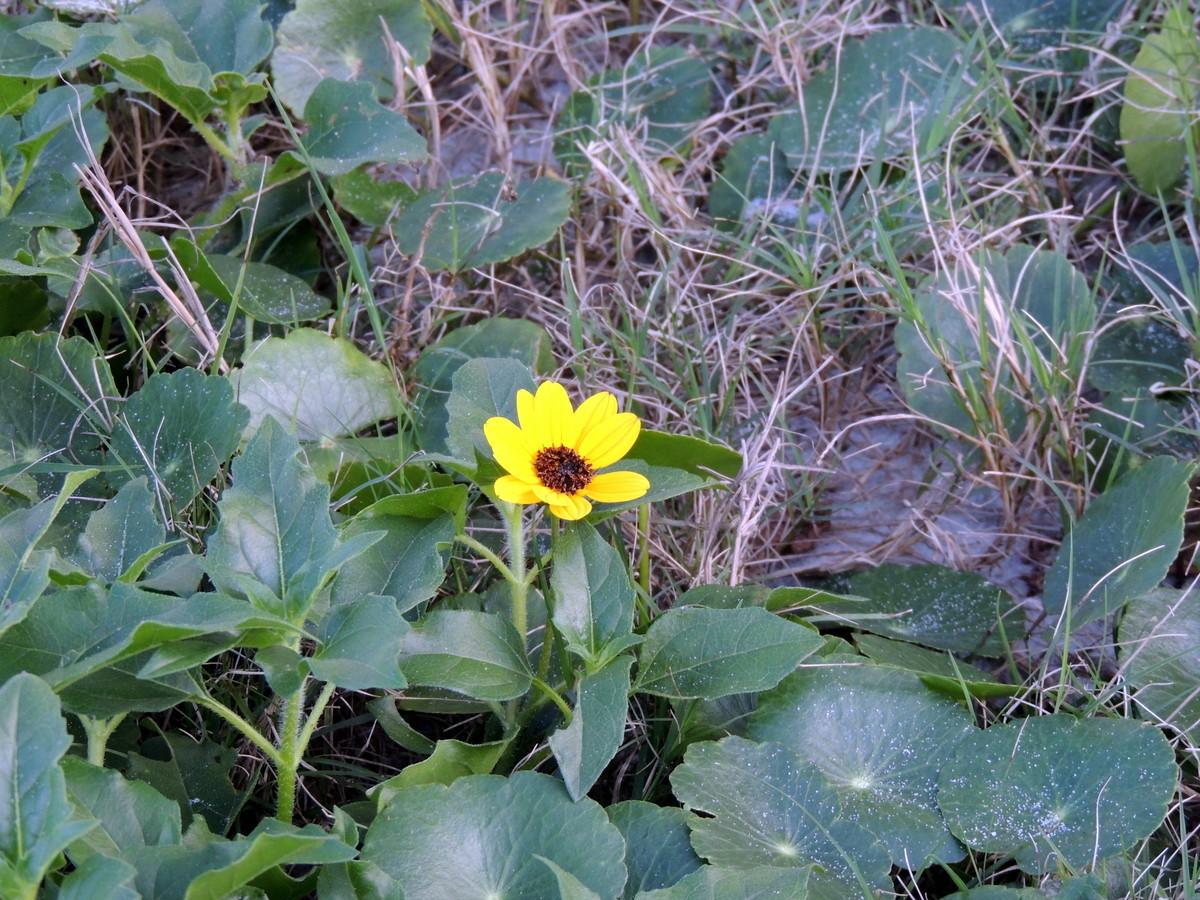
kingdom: Plantae
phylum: Tracheophyta
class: Magnoliopsida
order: Asterales
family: Asteraceae
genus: Helianthus
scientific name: Helianthus debilis
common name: Weak sunflower
